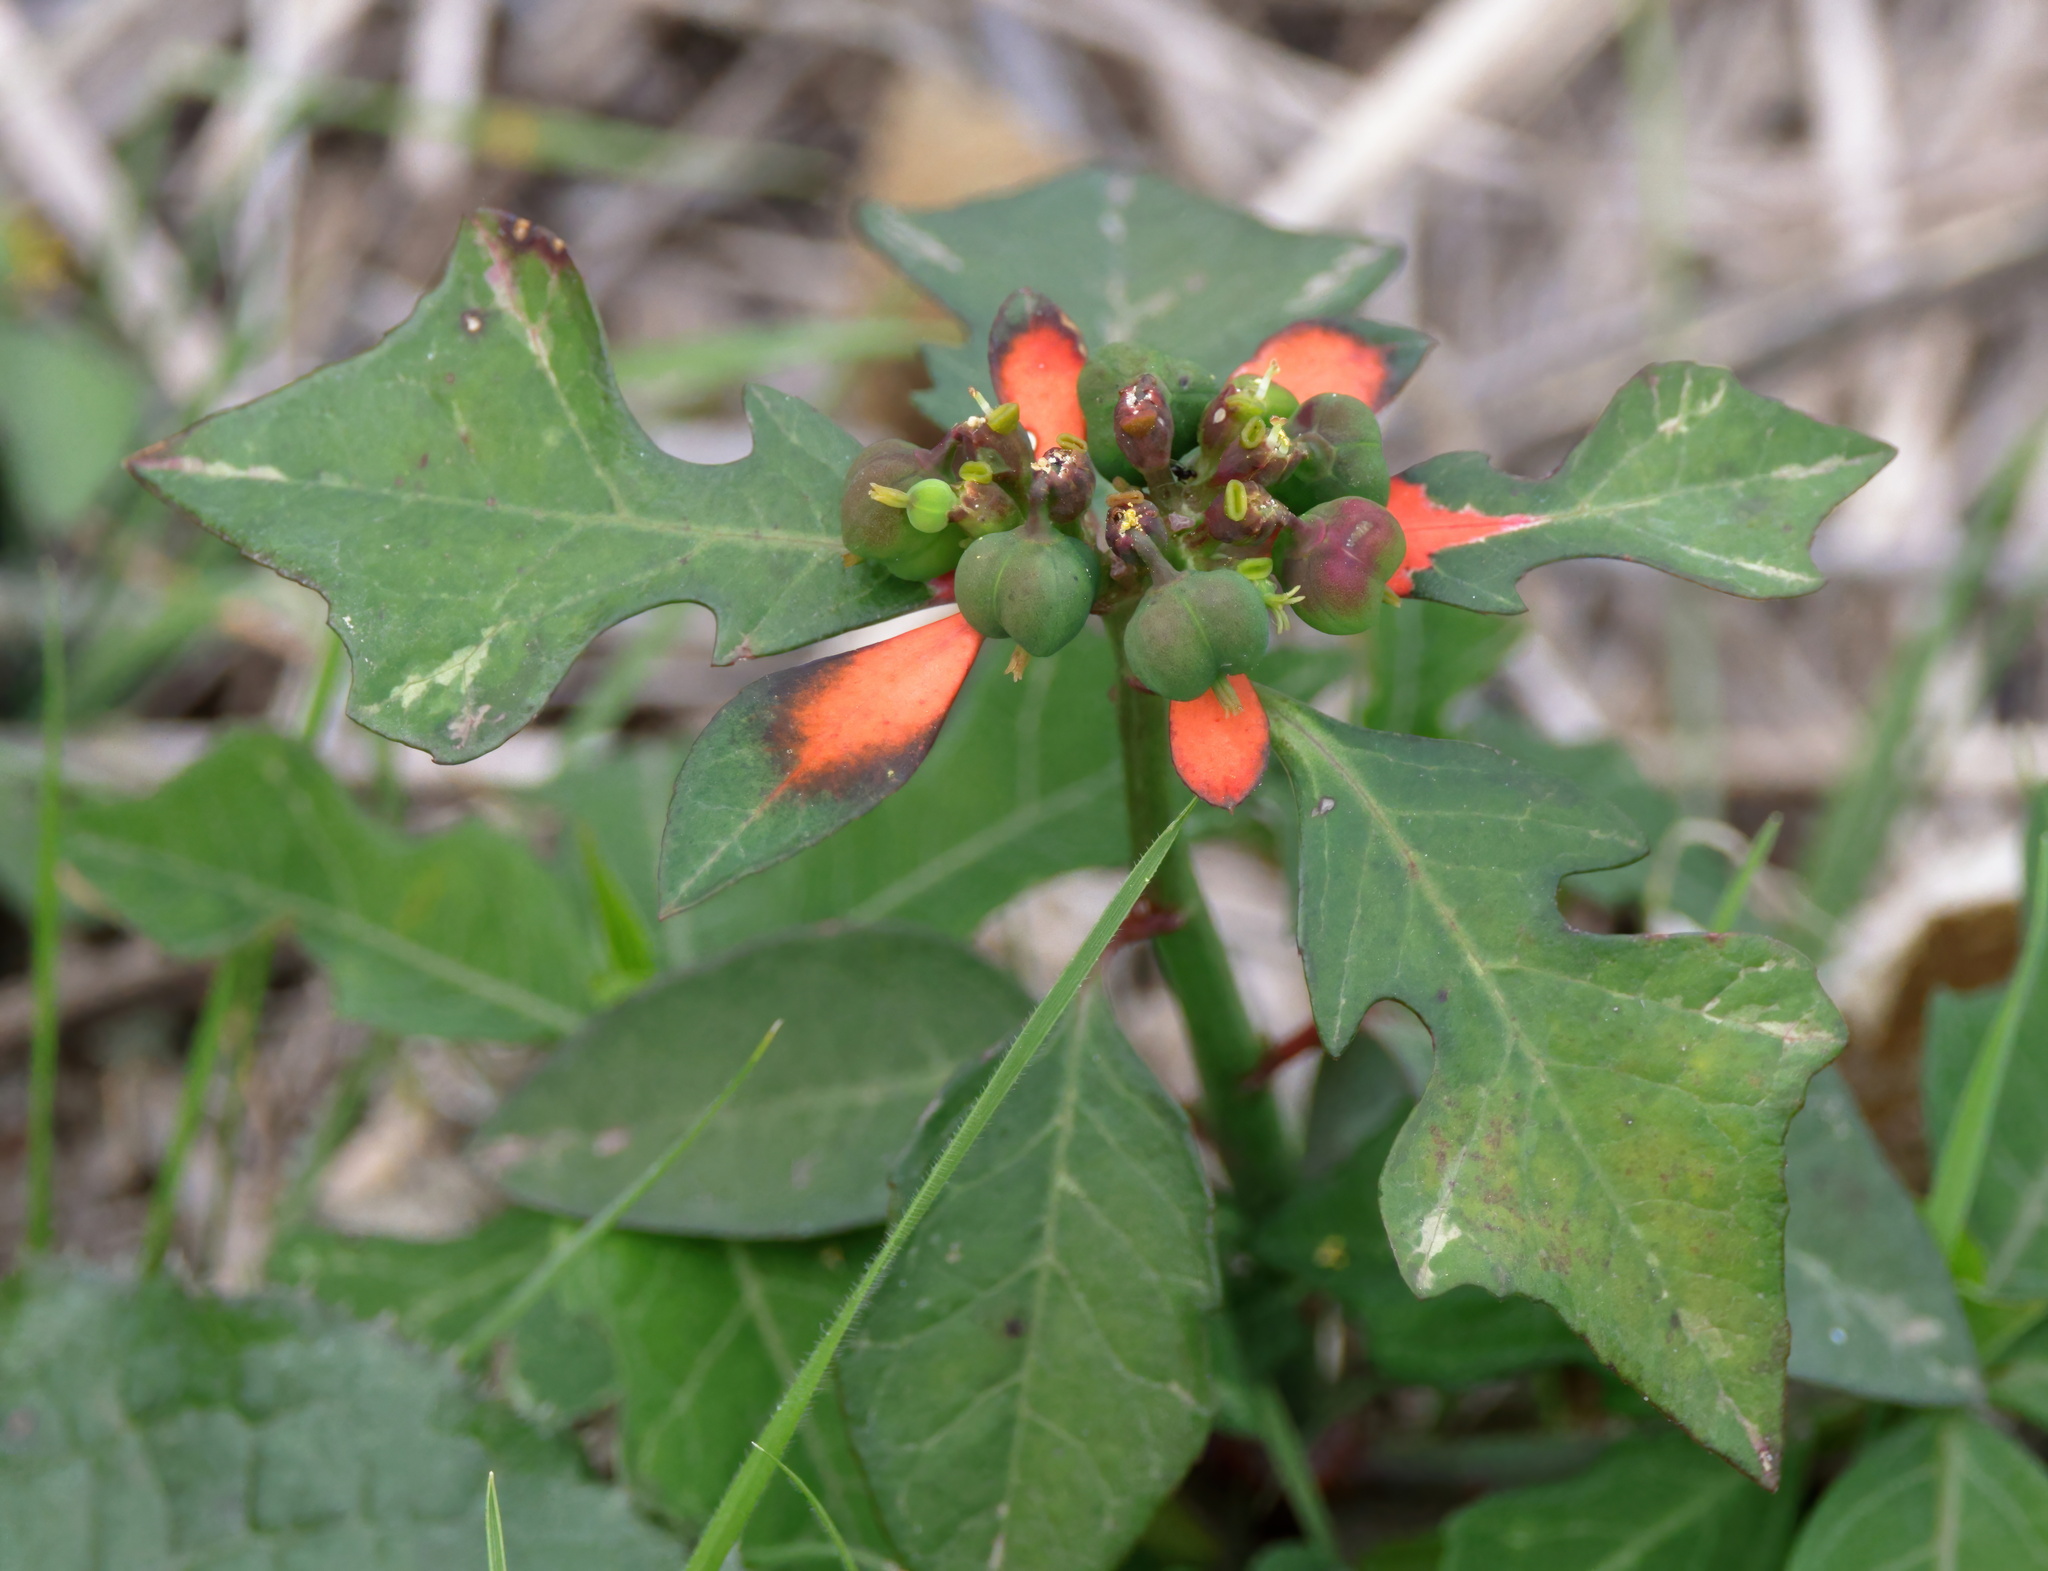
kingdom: Plantae
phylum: Tracheophyta
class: Magnoliopsida
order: Malpighiales
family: Euphorbiaceae
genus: Euphorbia
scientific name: Euphorbia heterophylla
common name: Mexican fireplant
